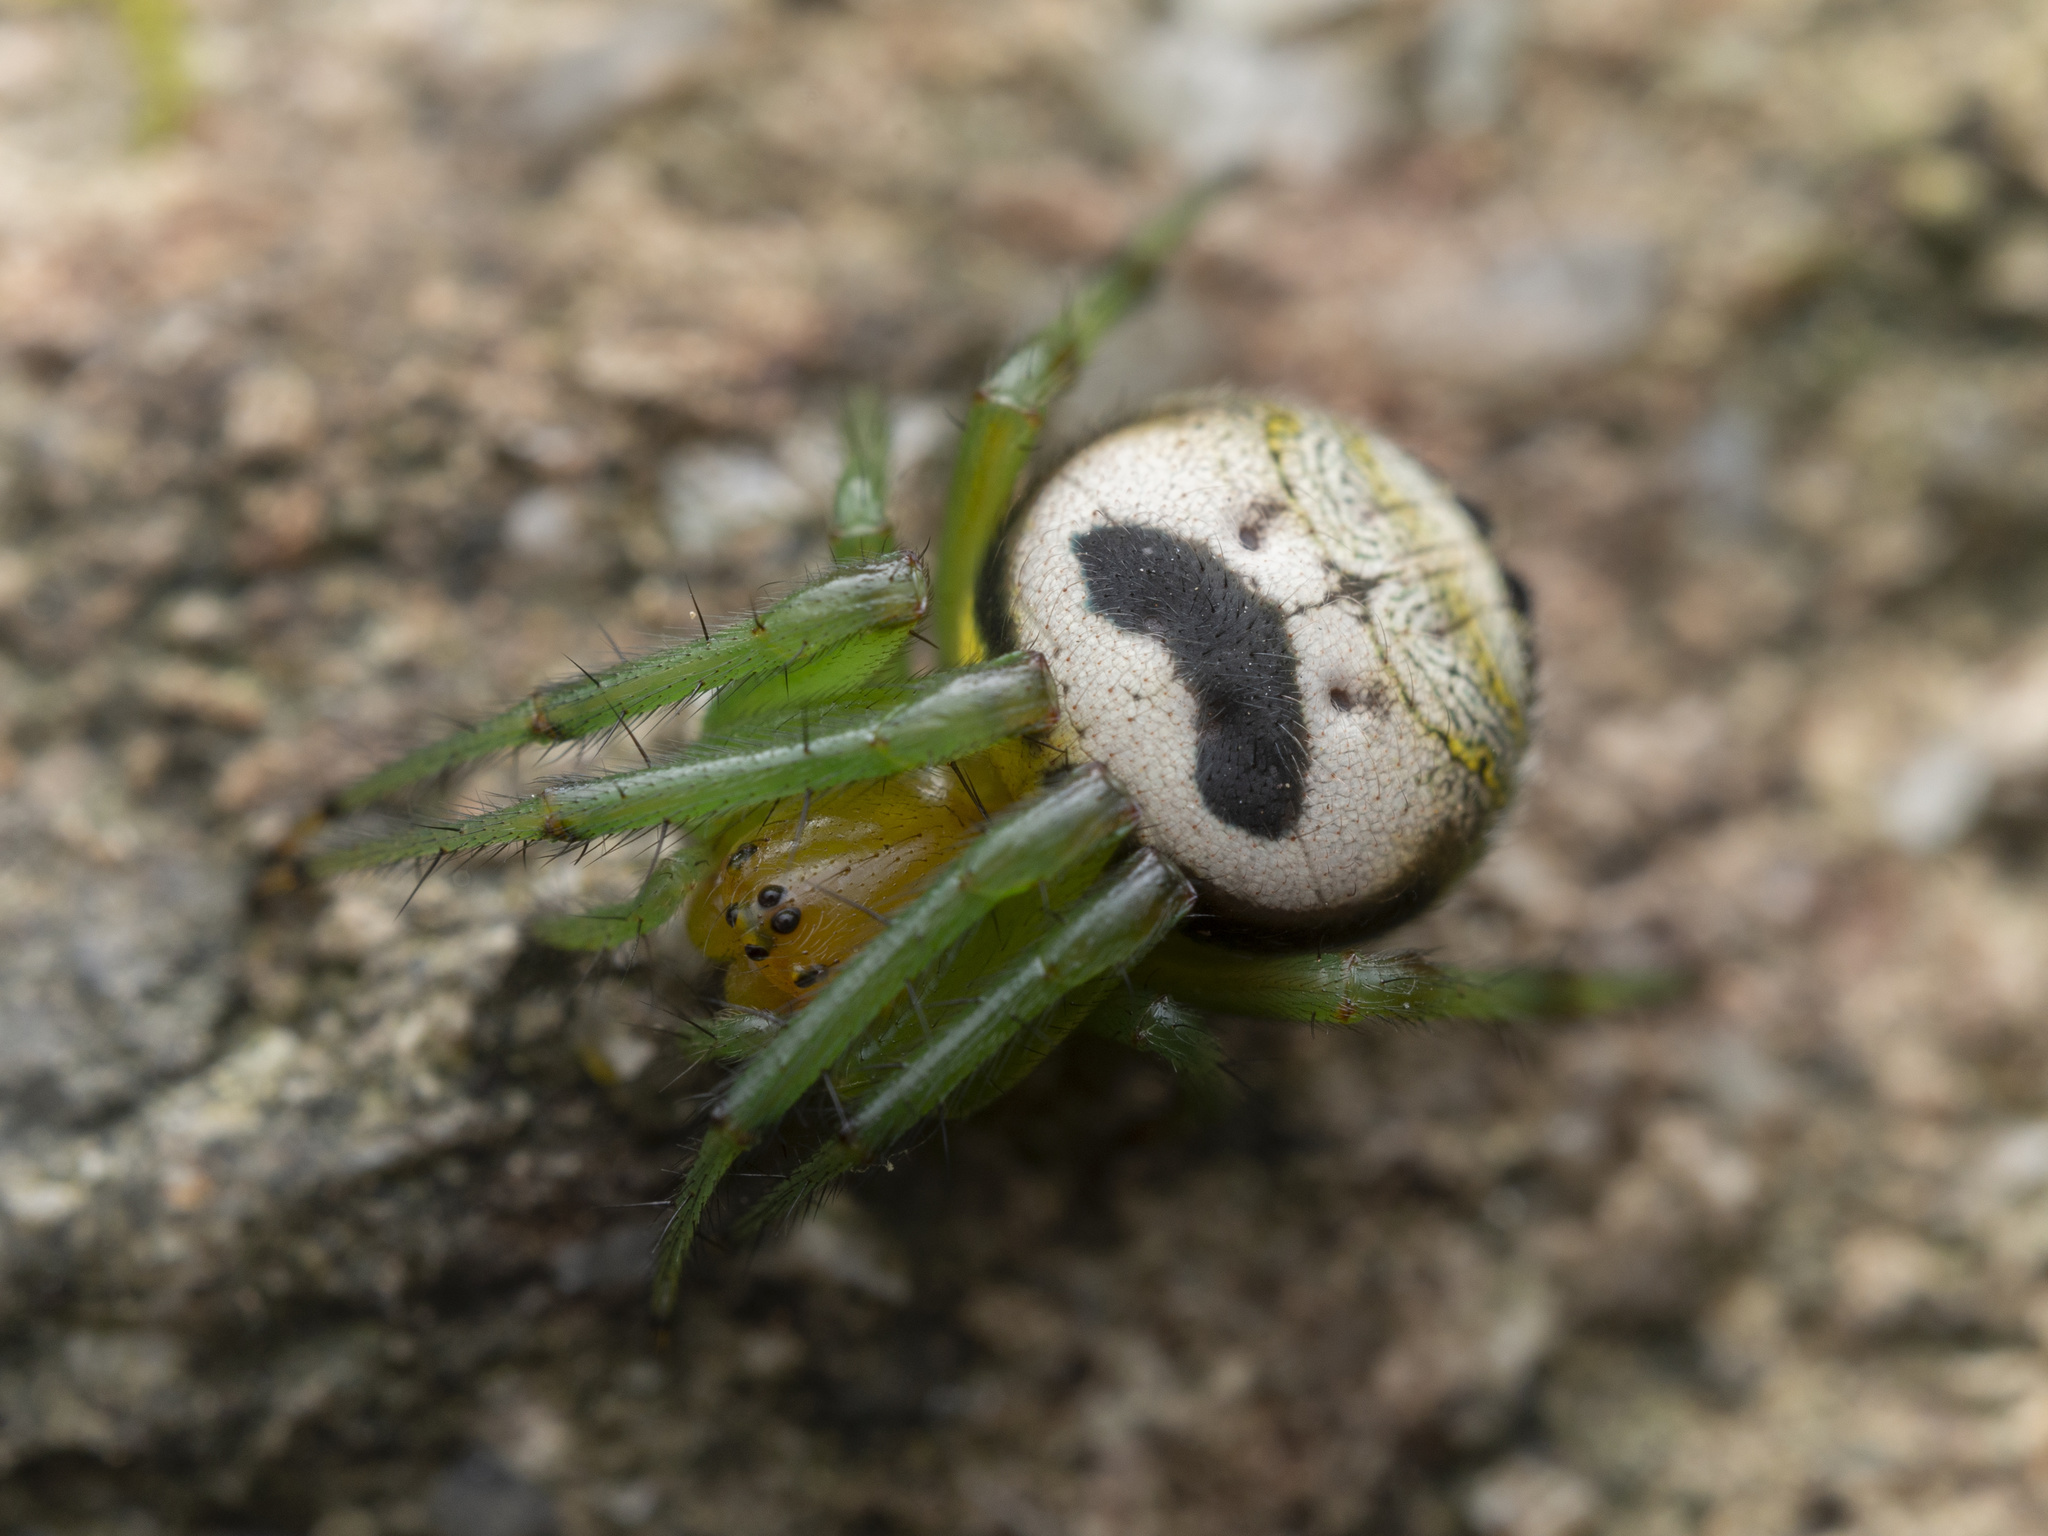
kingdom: Animalia
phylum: Arthropoda
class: Arachnida
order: Araneae
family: Araneidae
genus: Bijoaraneus
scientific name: Bijoaraneus mitificus
